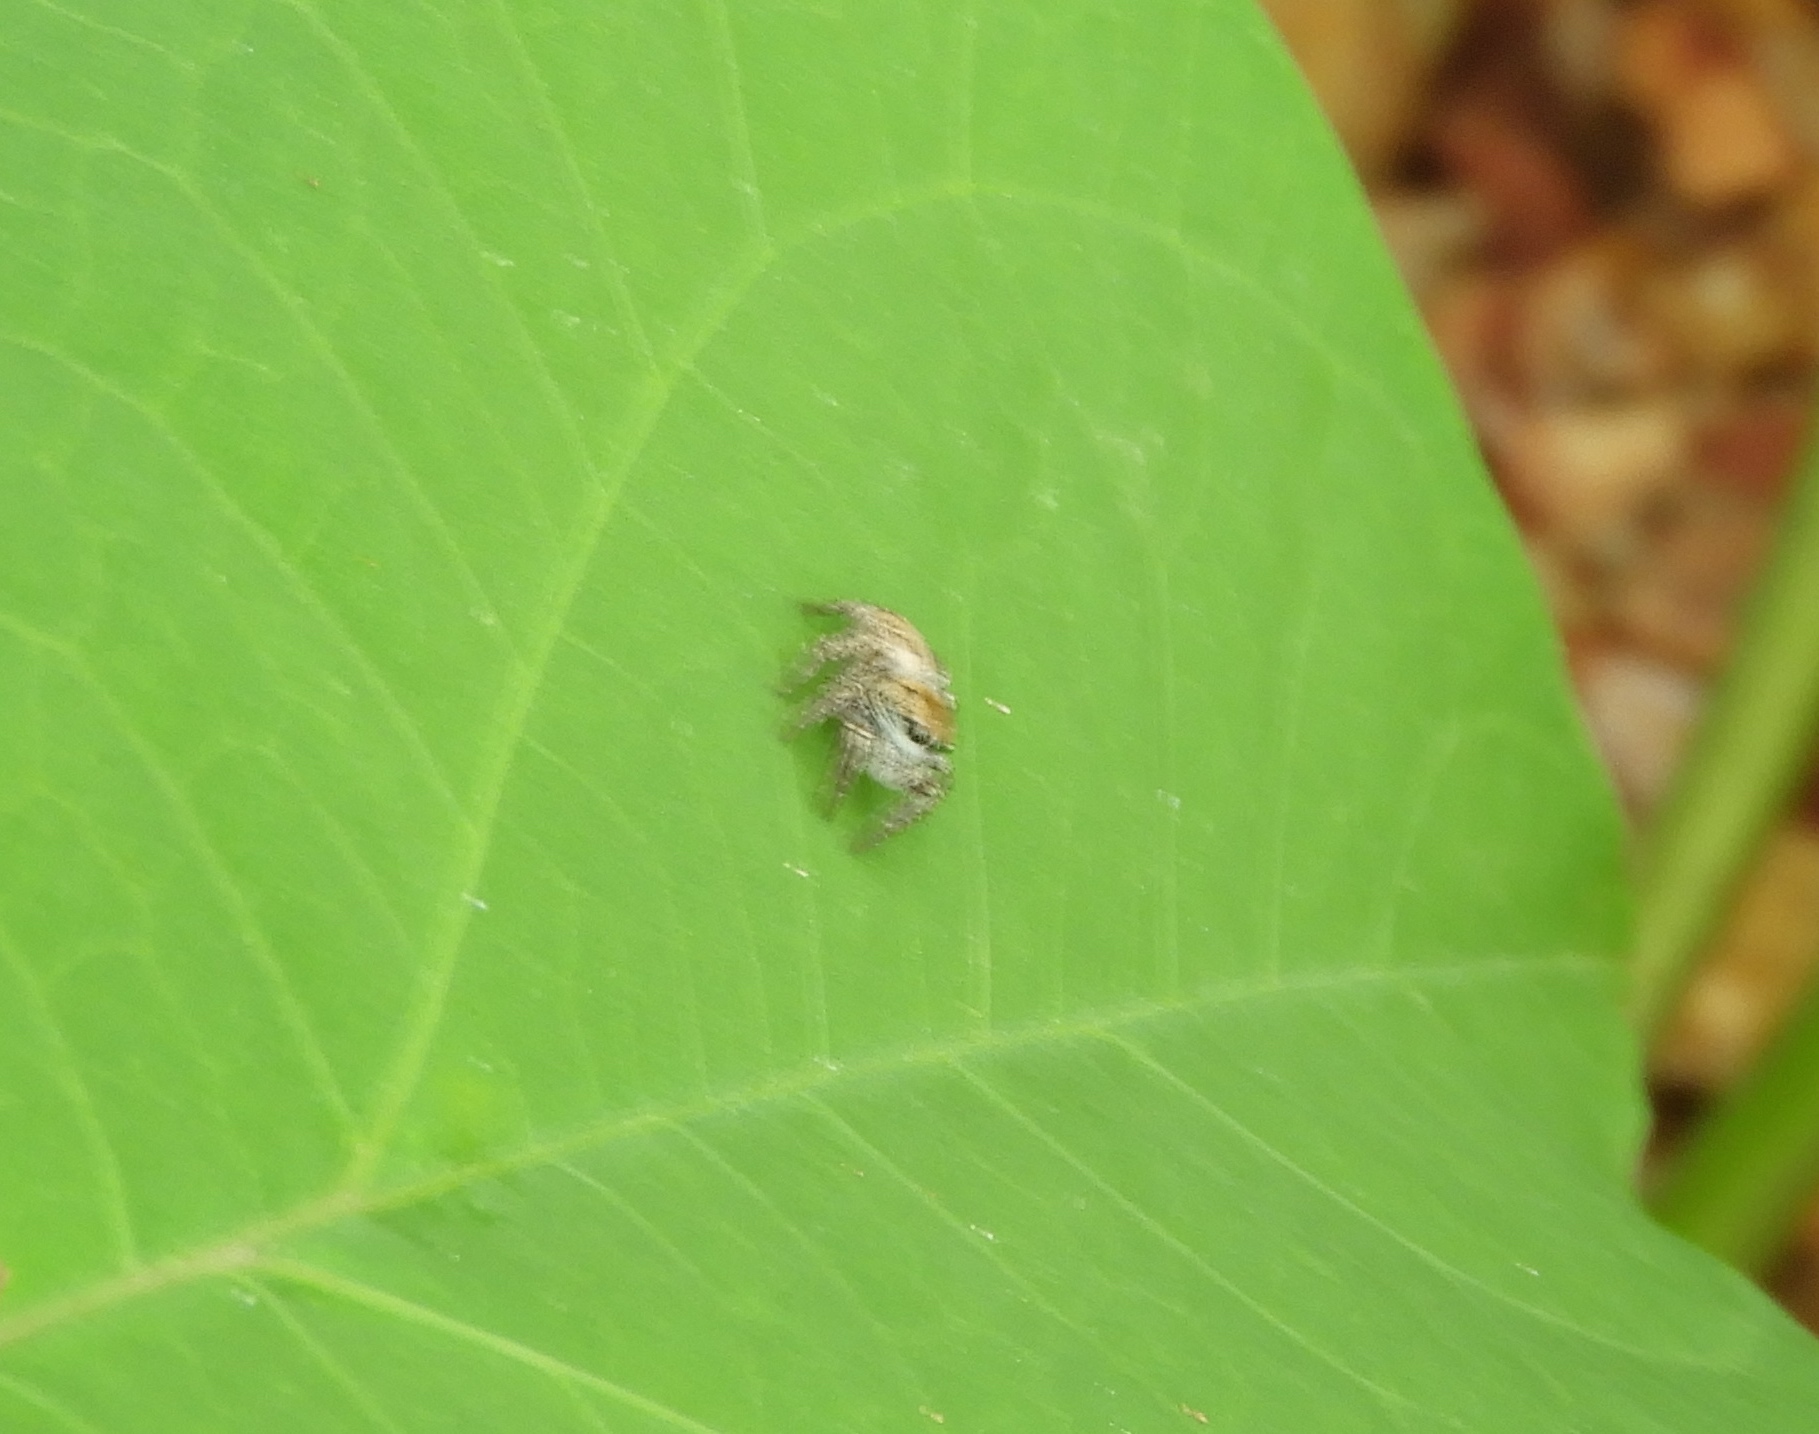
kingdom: Animalia
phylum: Arthropoda
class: Arachnida
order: Araneae
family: Salticidae
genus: Habronattus
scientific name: Habronattus
